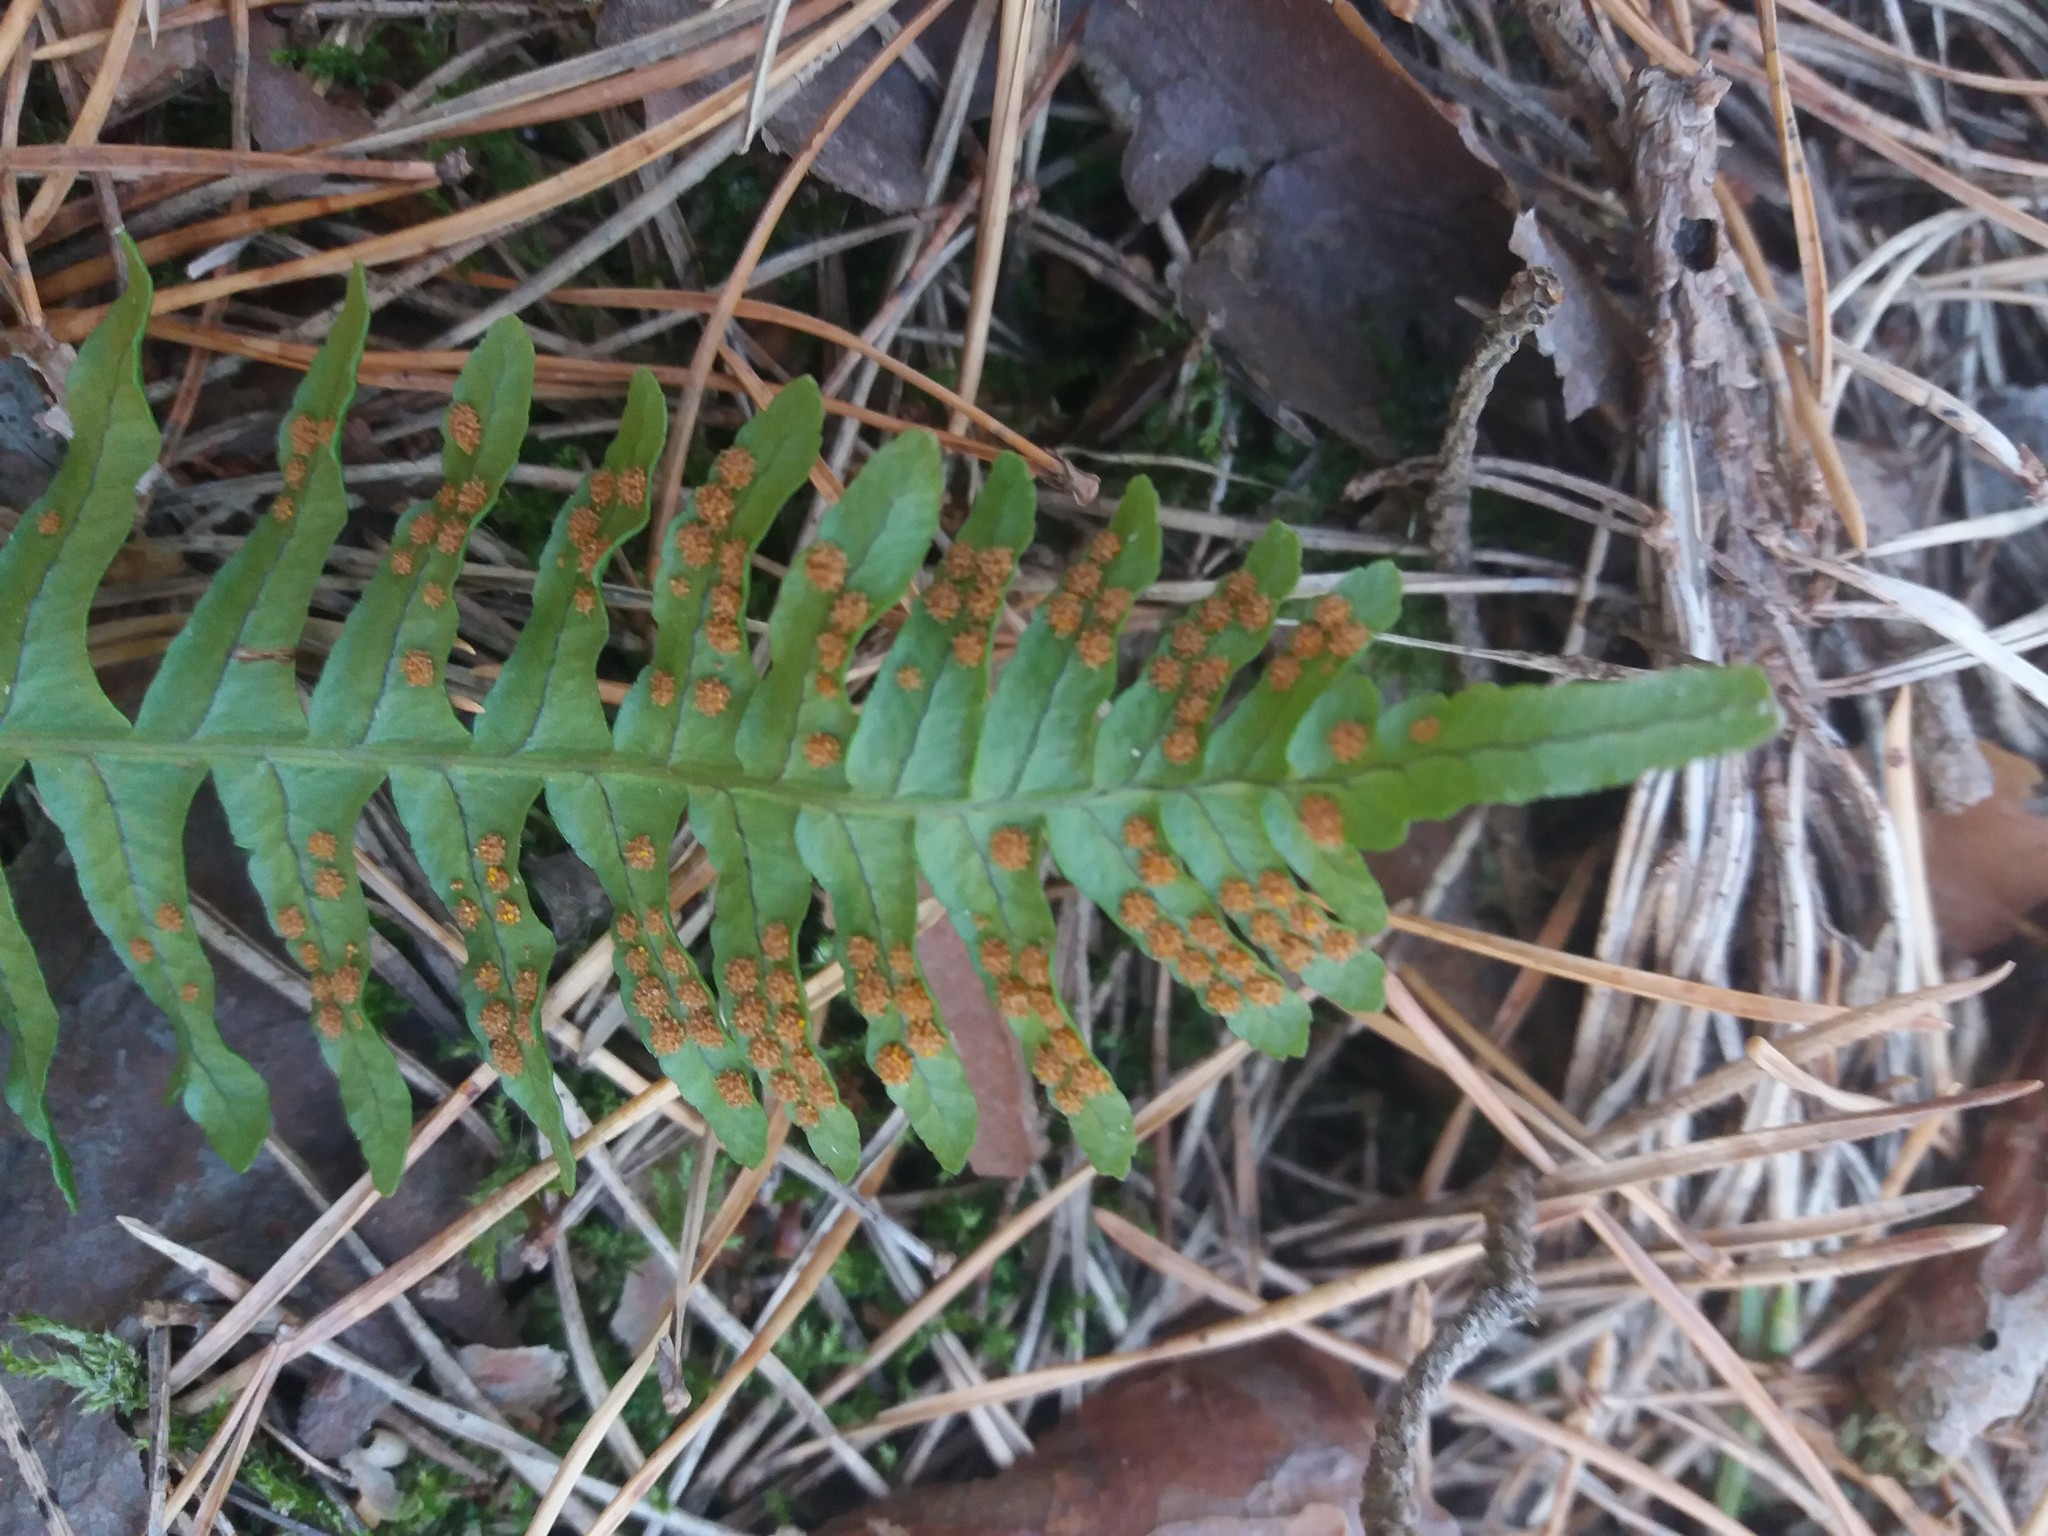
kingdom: Plantae
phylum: Tracheophyta
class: Polypodiopsida
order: Polypodiales
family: Polypodiaceae
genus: Polypodium
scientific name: Polypodium vulgare
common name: Common polypody
